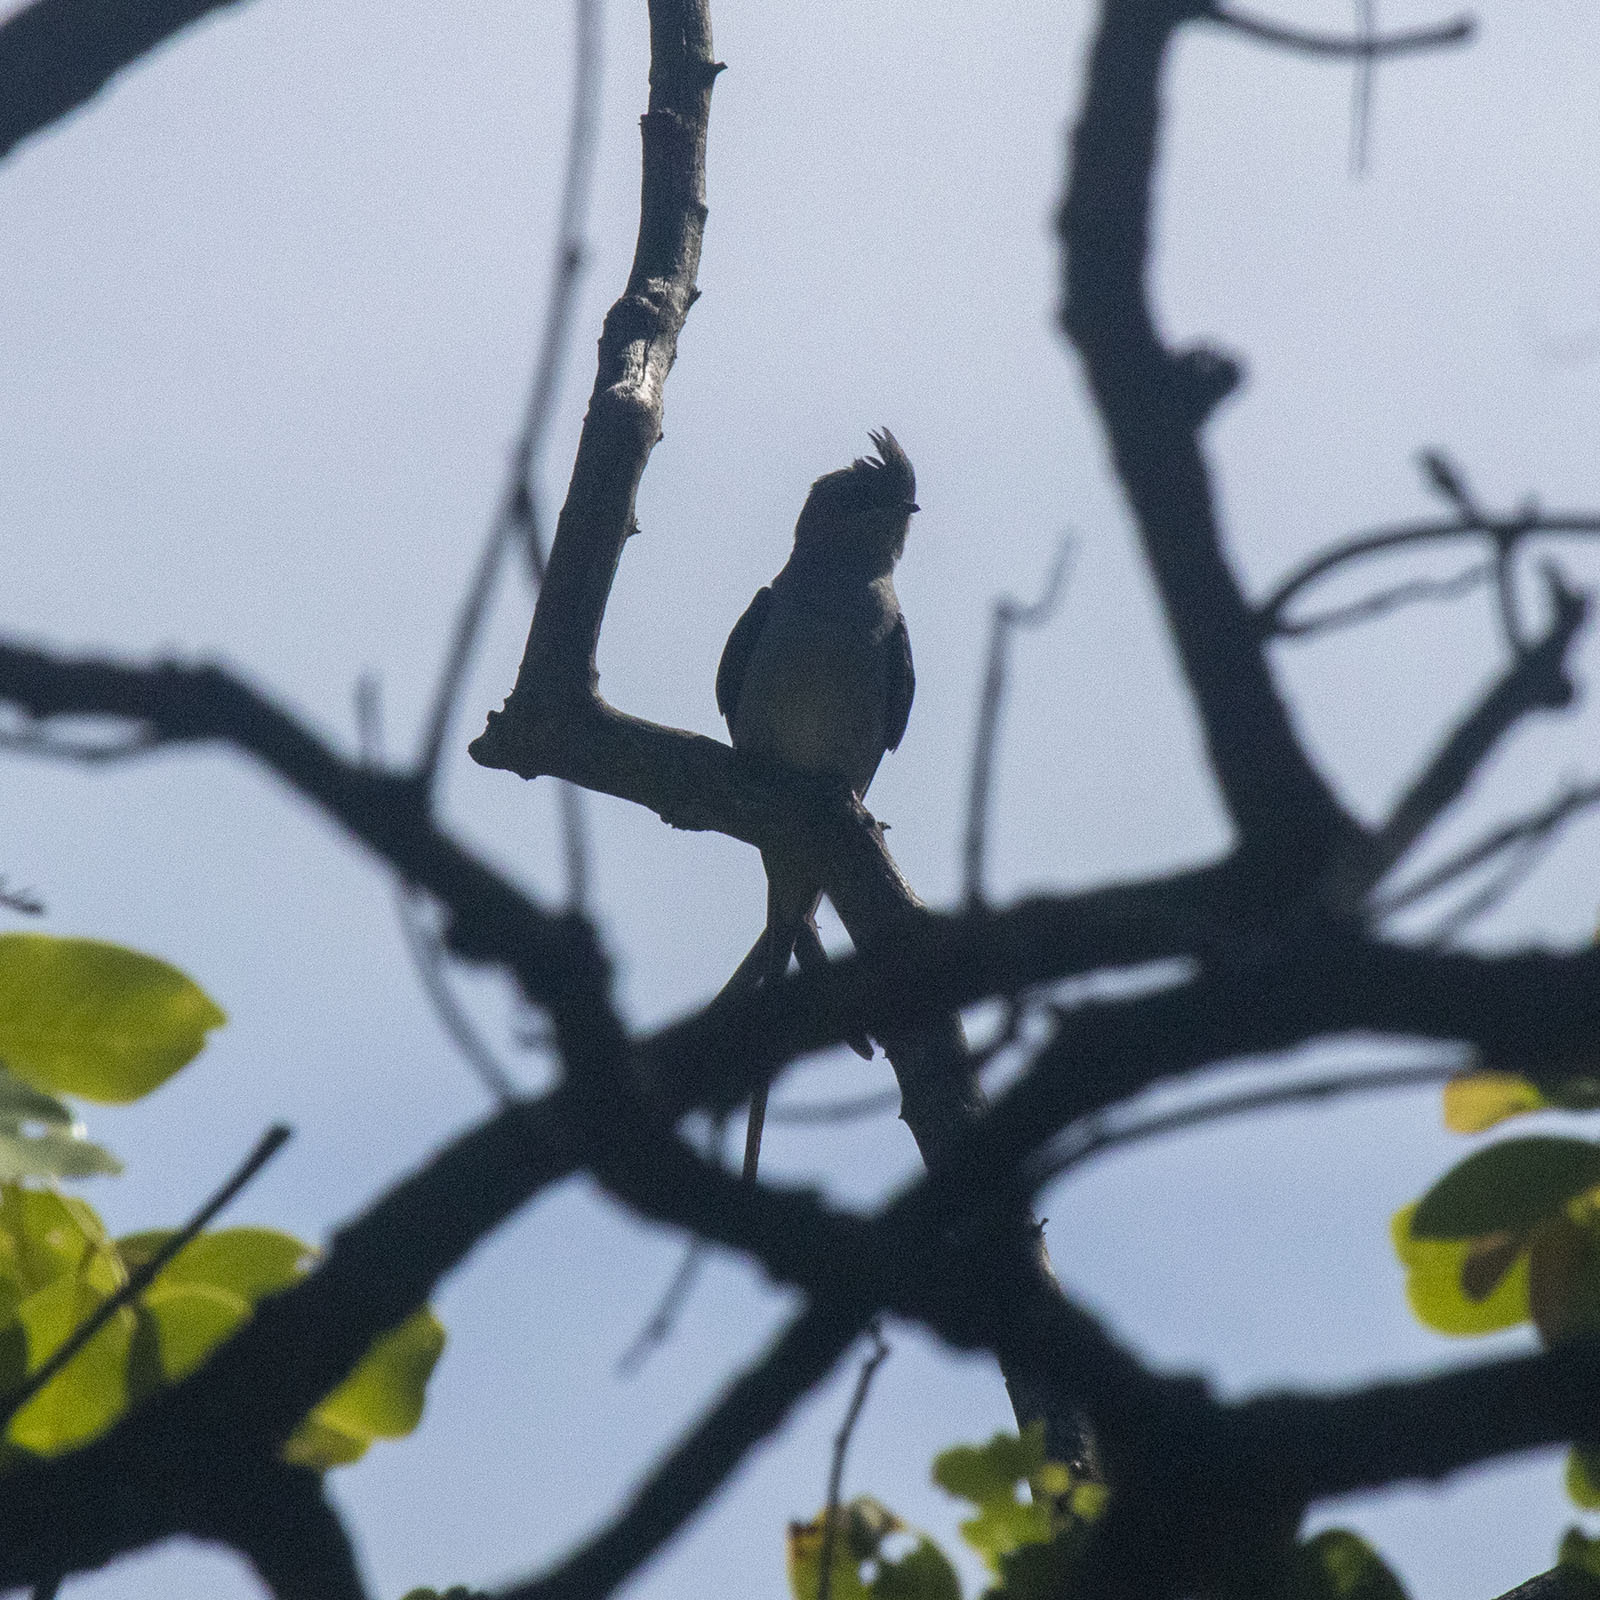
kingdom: Animalia
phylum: Chordata
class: Aves
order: Apodiformes
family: Hemiprocnidae
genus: Hemiprocne
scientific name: Hemiprocne coronata
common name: Crested treeswift
